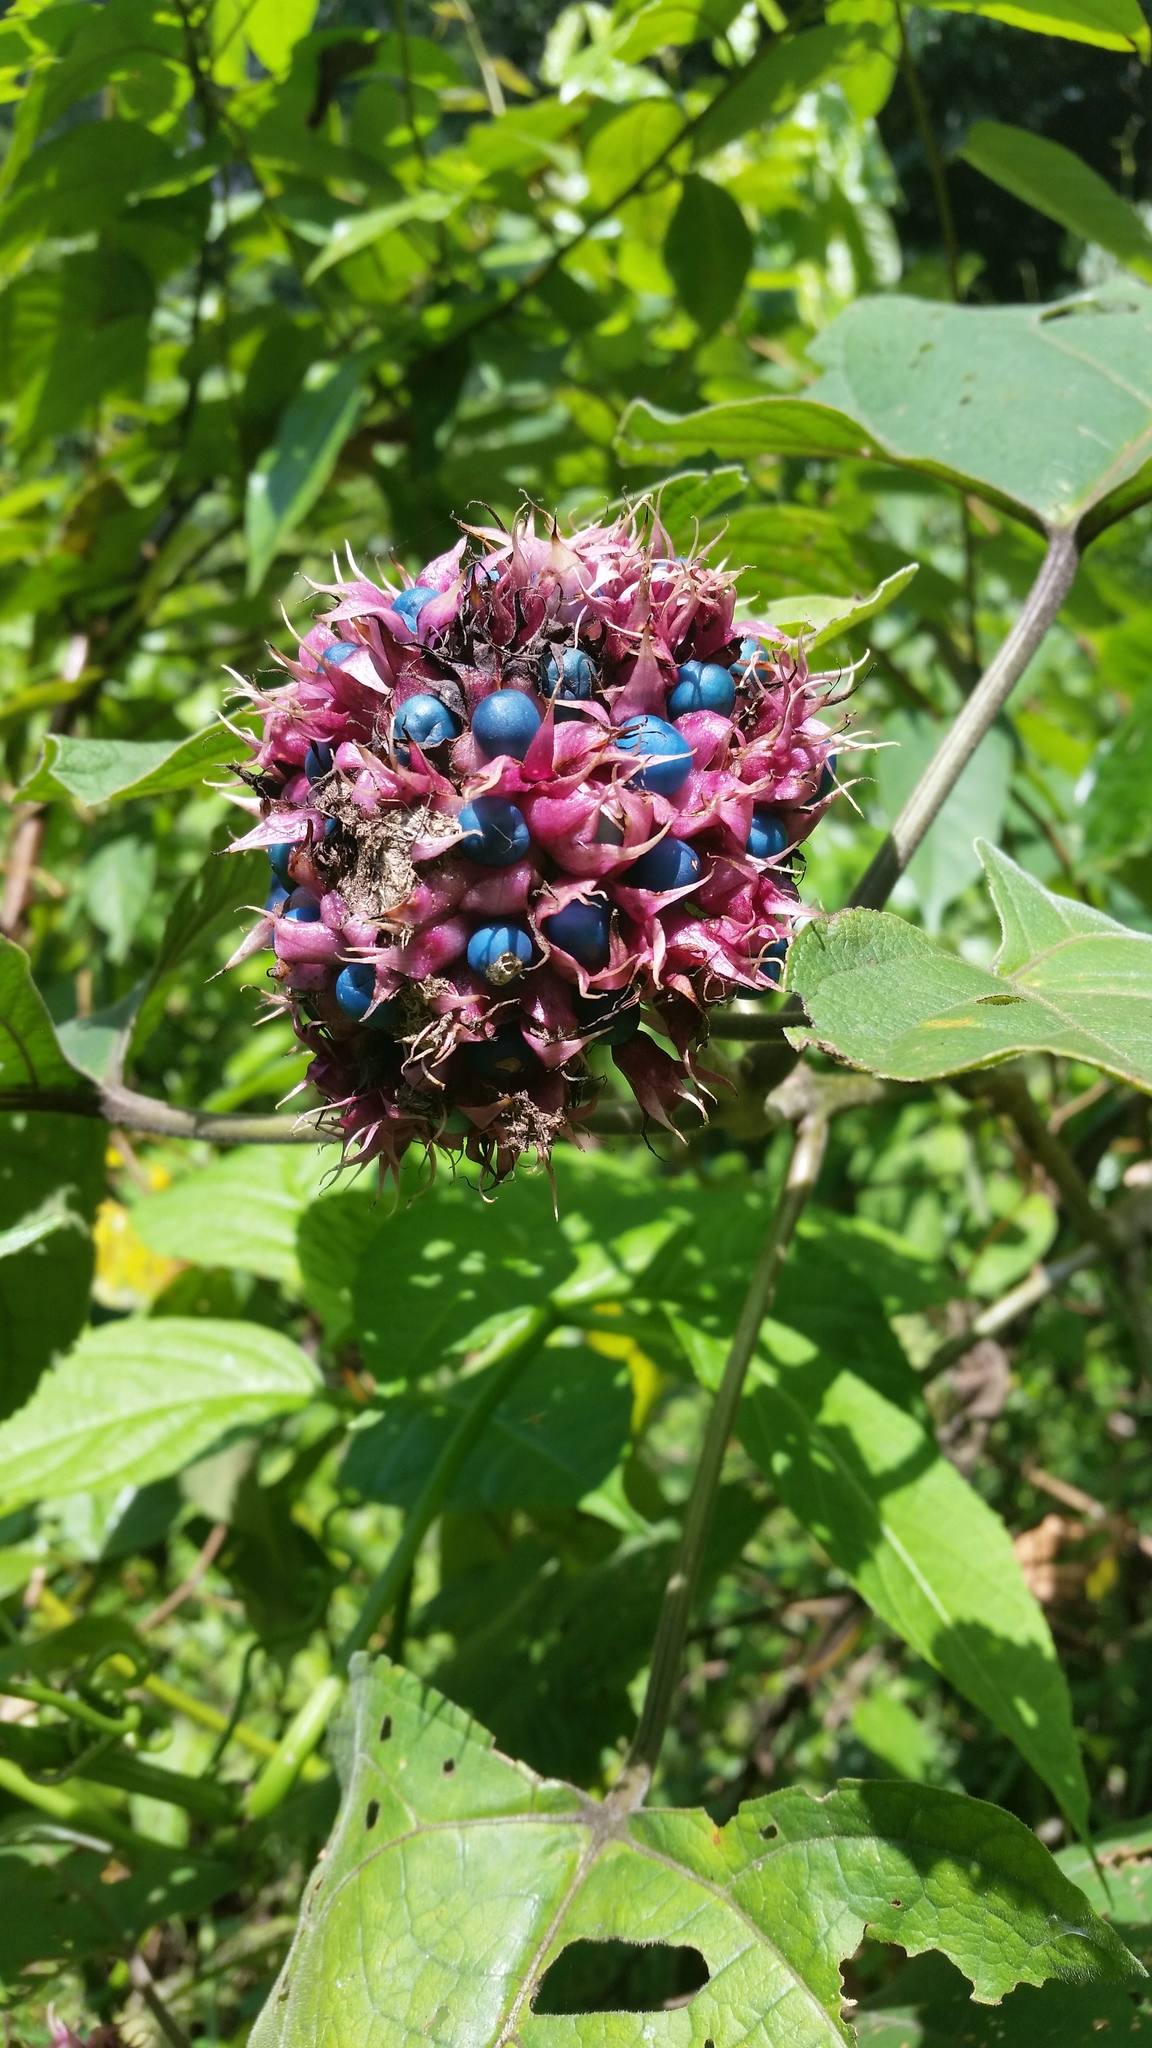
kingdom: Plantae
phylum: Tracheophyta
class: Magnoliopsida
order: Lamiales
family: Lamiaceae
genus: Clerodendrum
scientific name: Clerodendrum chinense
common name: Stickbush
